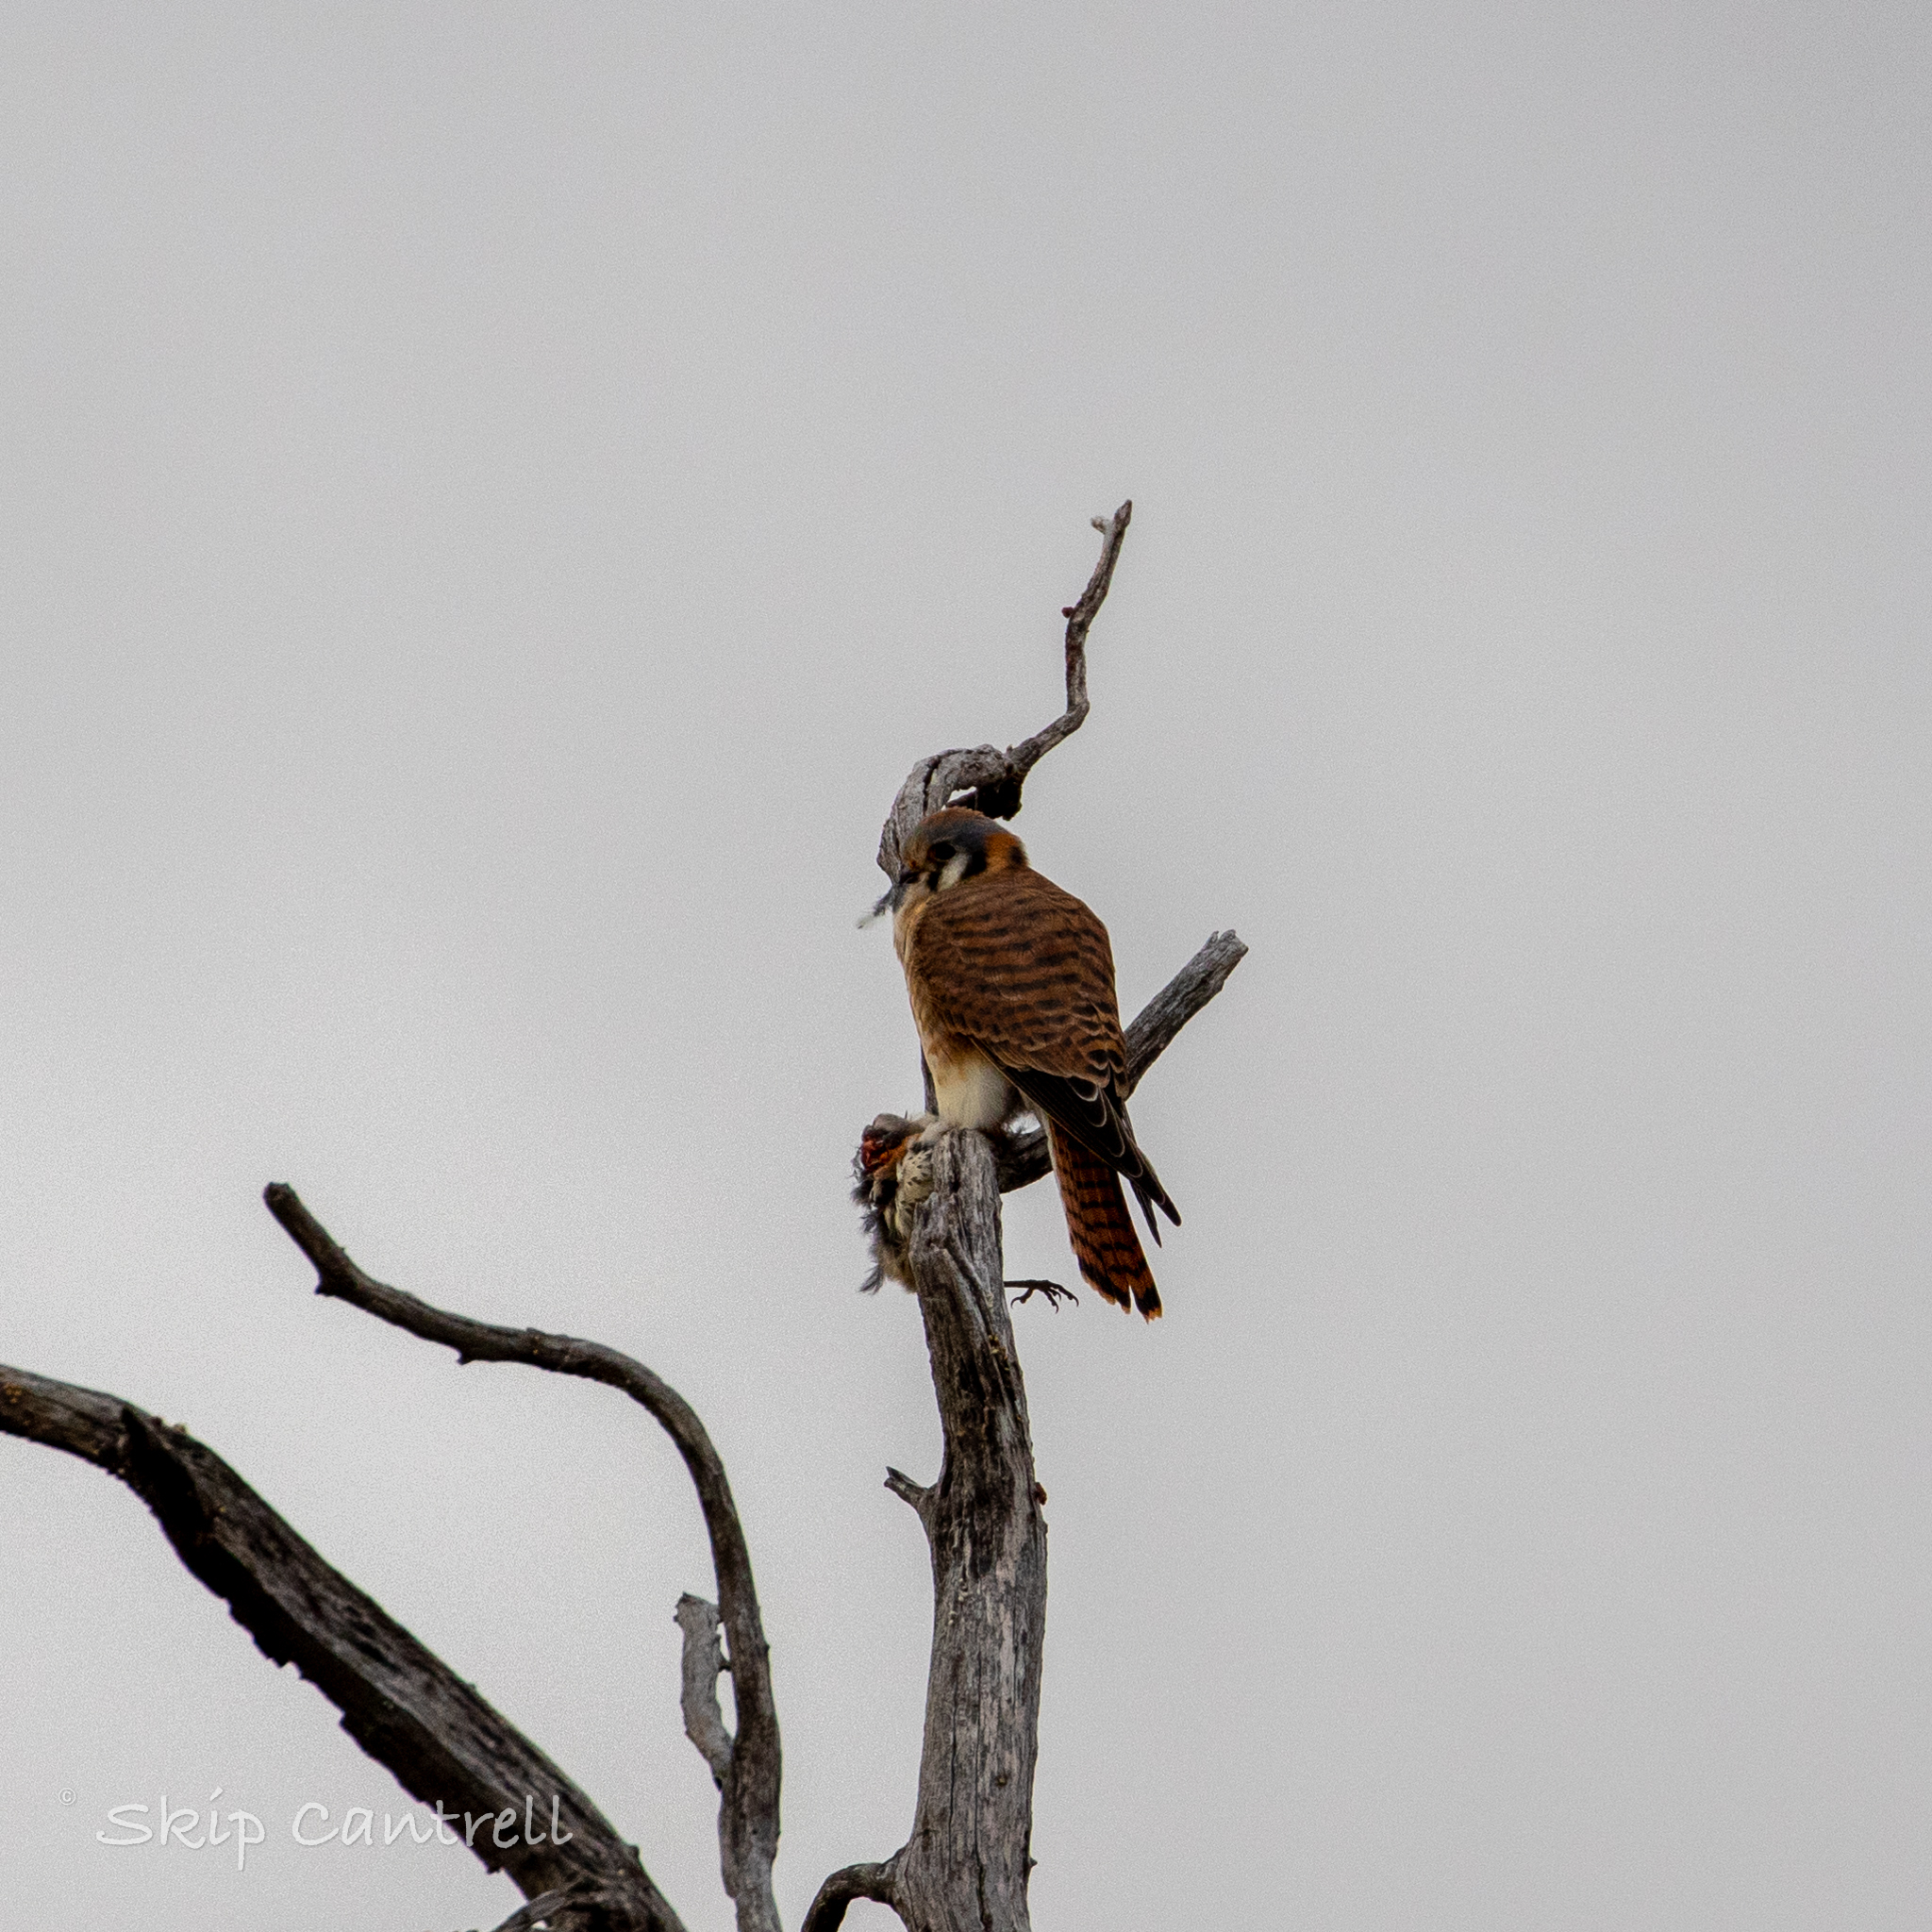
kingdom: Animalia
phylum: Chordata
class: Aves
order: Falconiformes
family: Falconidae
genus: Falco
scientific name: Falco sparverius
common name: American kestrel
